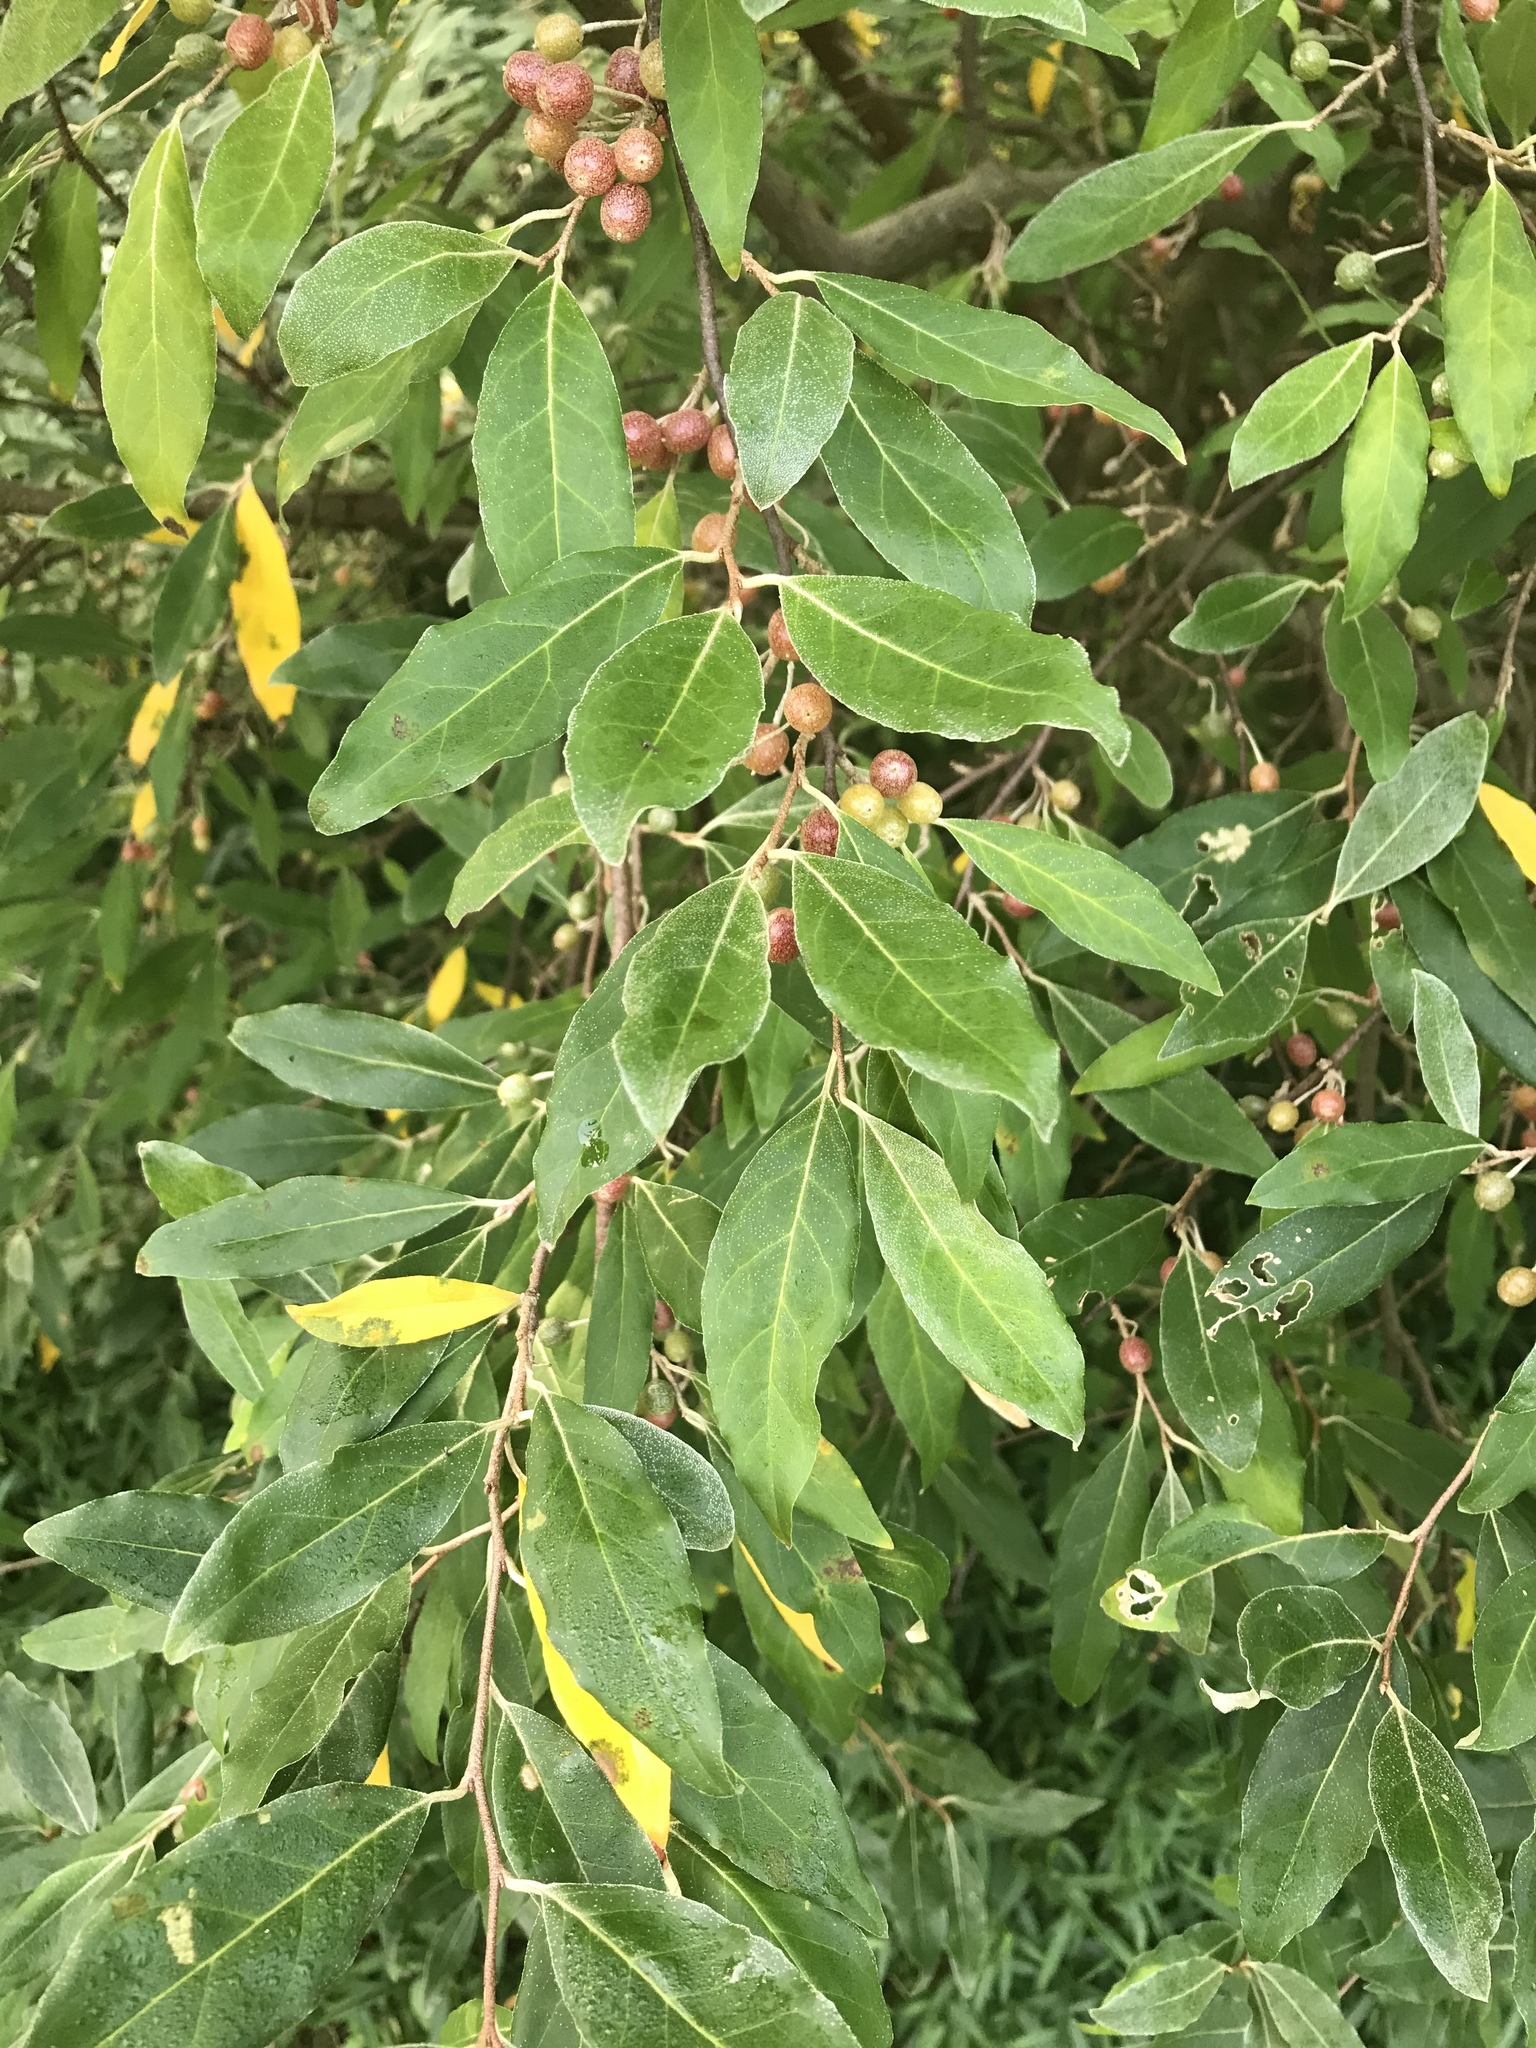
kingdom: Plantae
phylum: Tracheophyta
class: Magnoliopsida
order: Rosales
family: Elaeagnaceae
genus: Elaeagnus
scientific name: Elaeagnus umbellata
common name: Autumn olive
